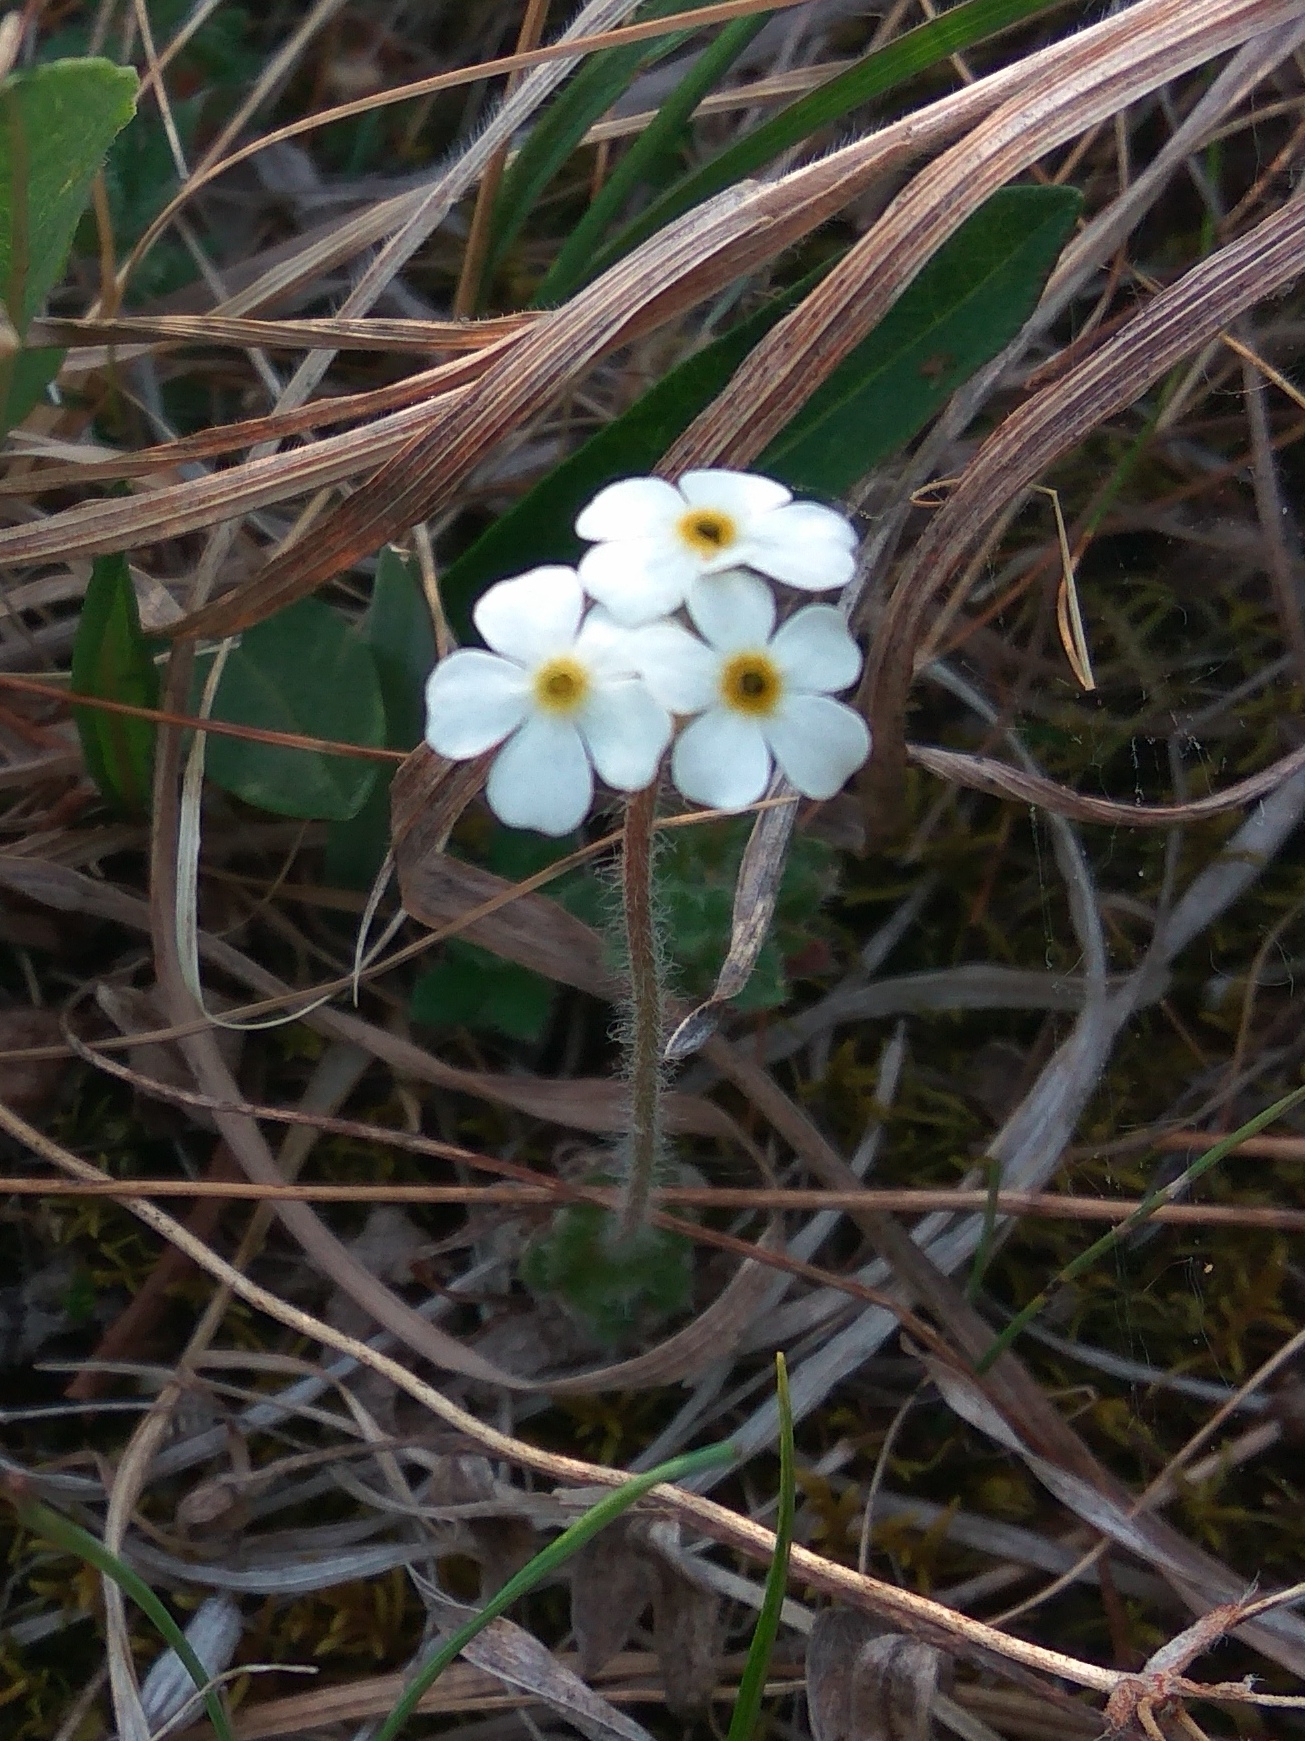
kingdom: Plantae
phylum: Tracheophyta
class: Magnoliopsida
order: Ericales
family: Primulaceae
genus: Androsace
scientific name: Androsace chamaejasme
